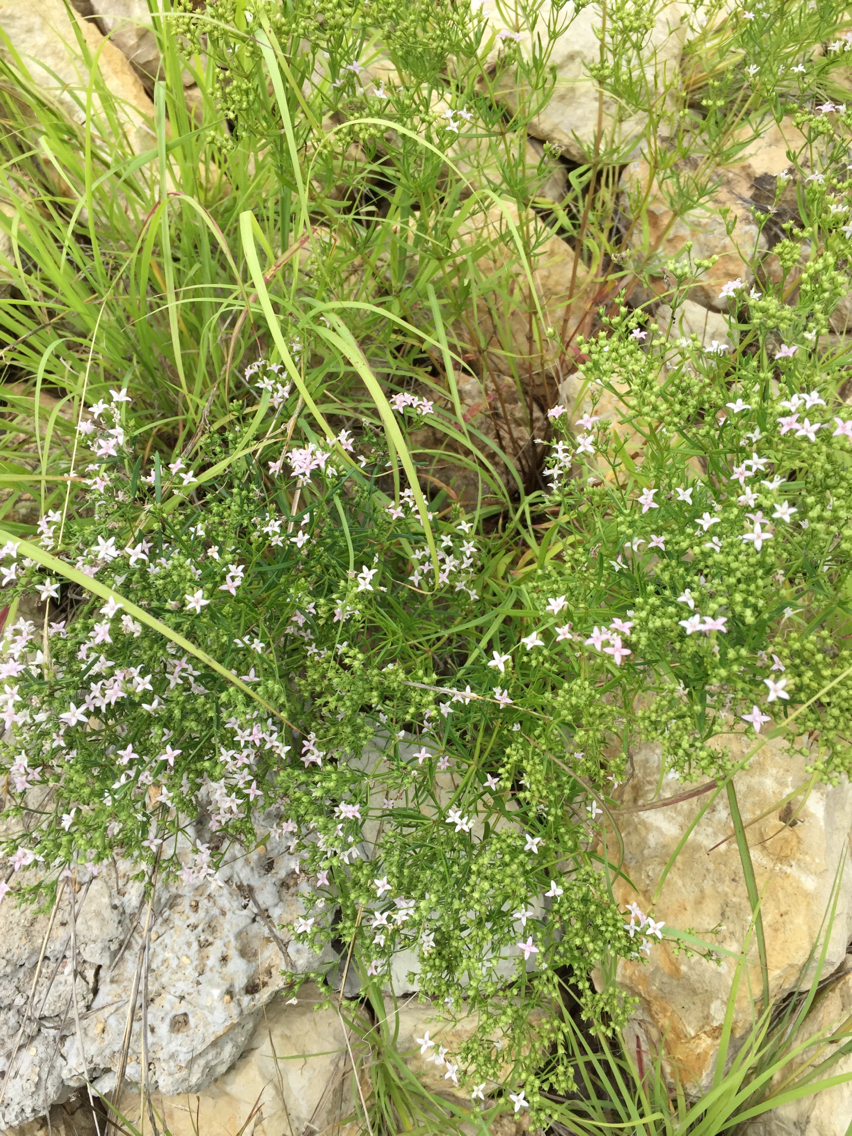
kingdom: Plantae
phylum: Tracheophyta
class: Magnoliopsida
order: Gentianales
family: Rubiaceae
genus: Stenaria
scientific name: Stenaria nigricans
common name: Diamondflowers
